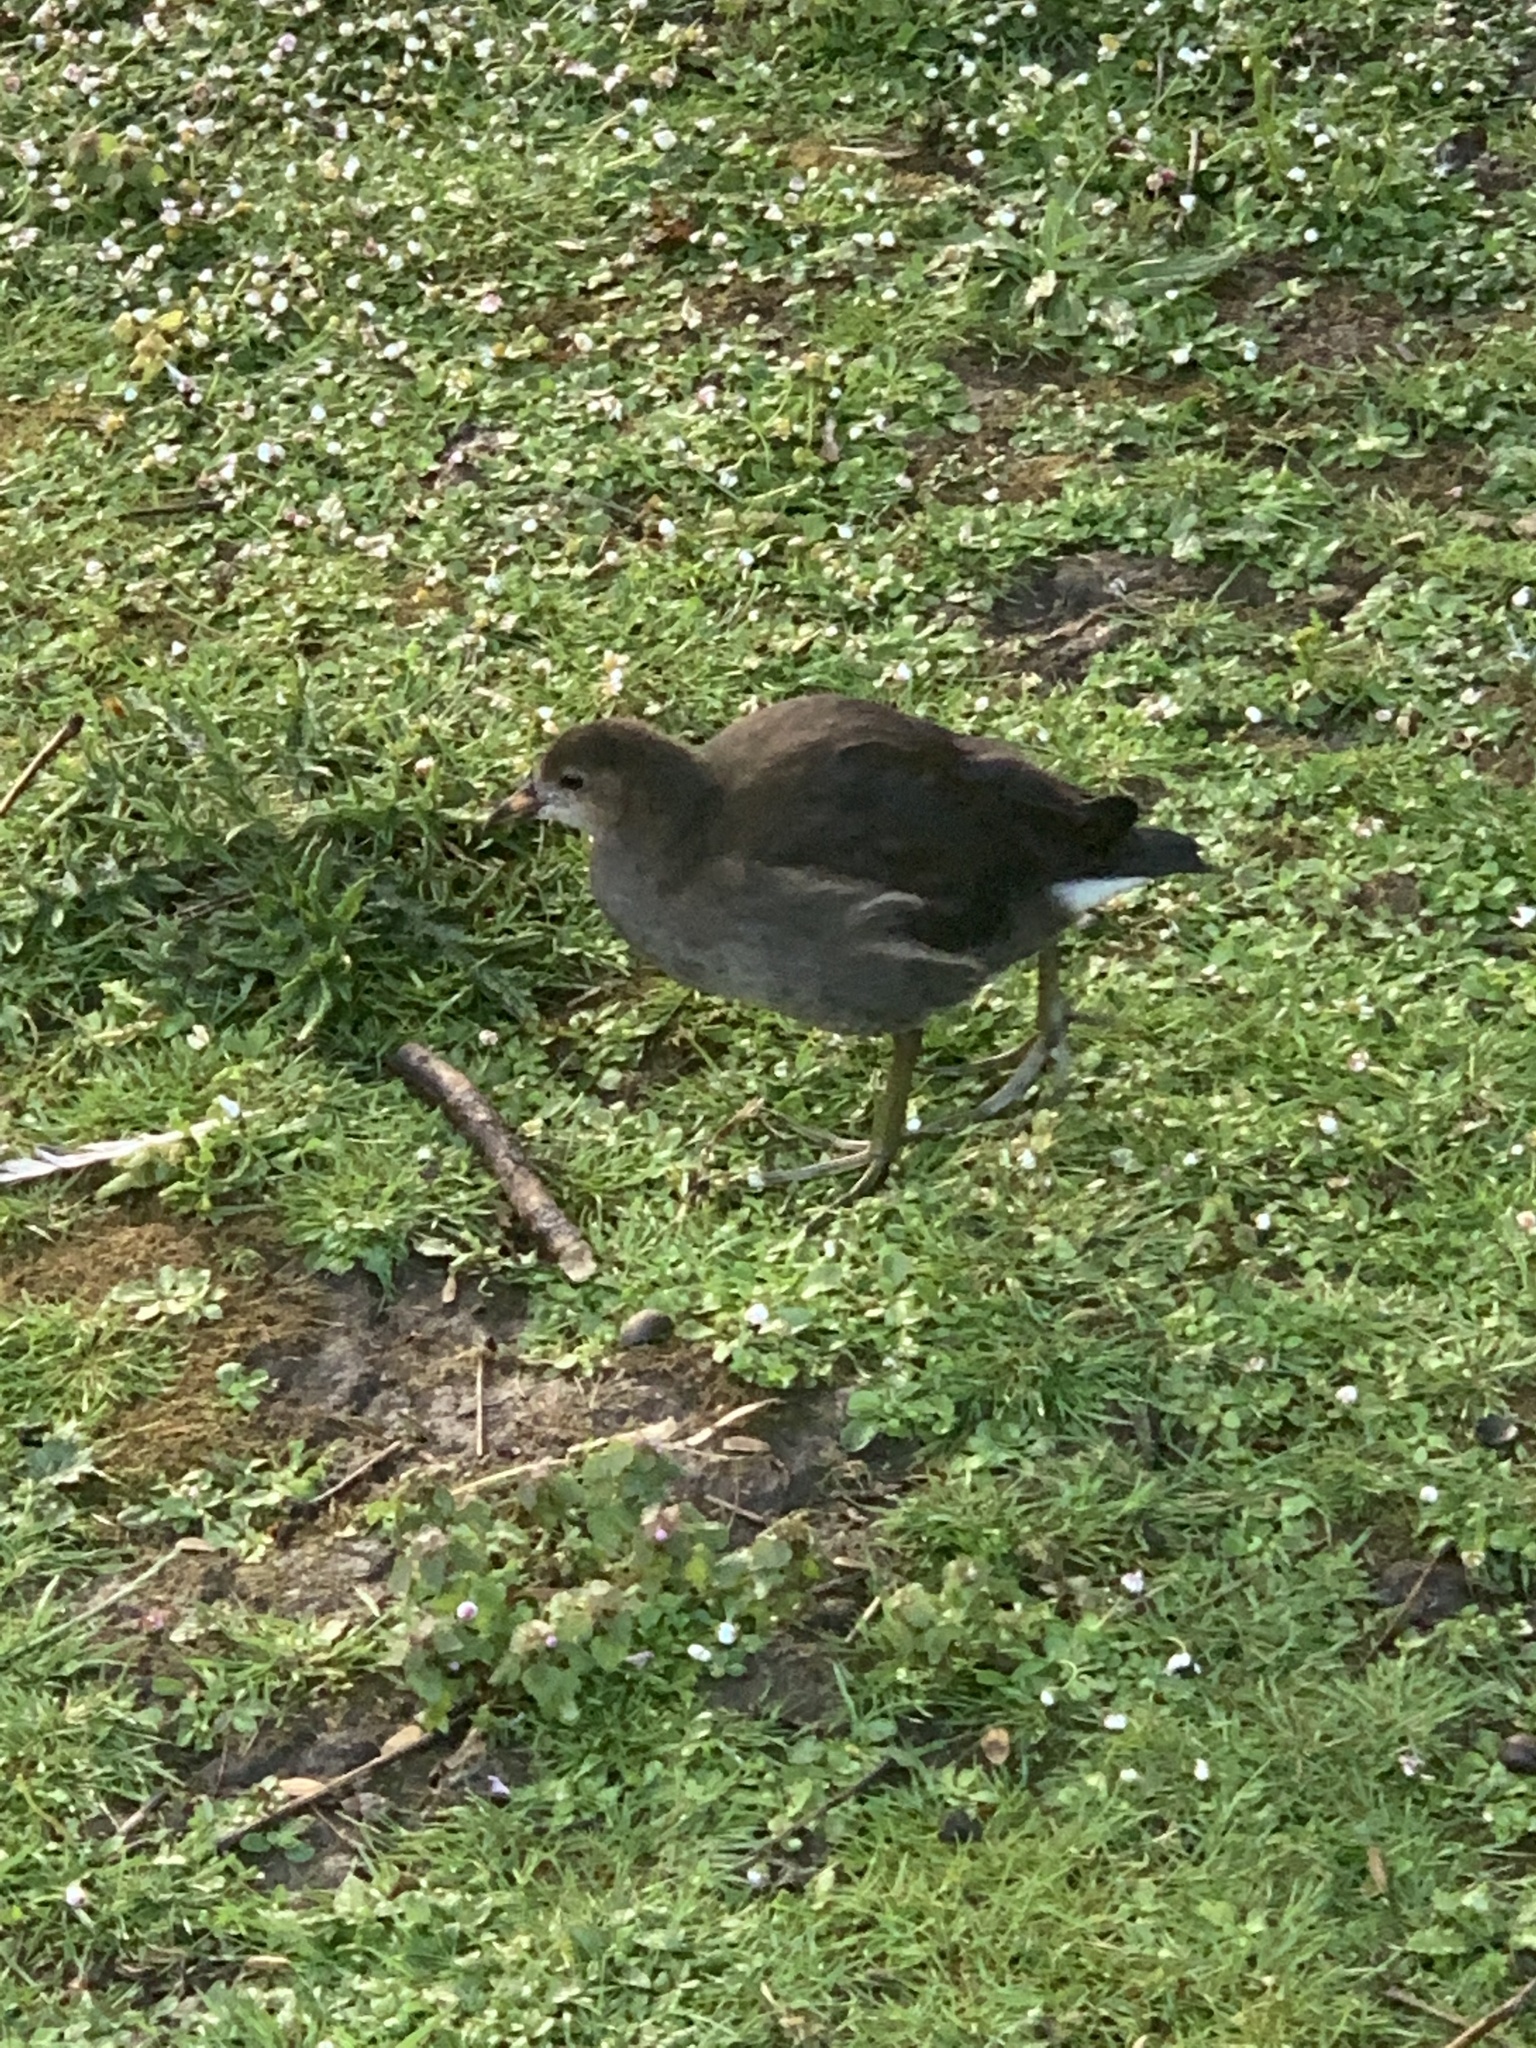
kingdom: Animalia
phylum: Chordata
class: Aves
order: Gruiformes
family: Rallidae
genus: Gallinula
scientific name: Gallinula chloropus
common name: Common moorhen
